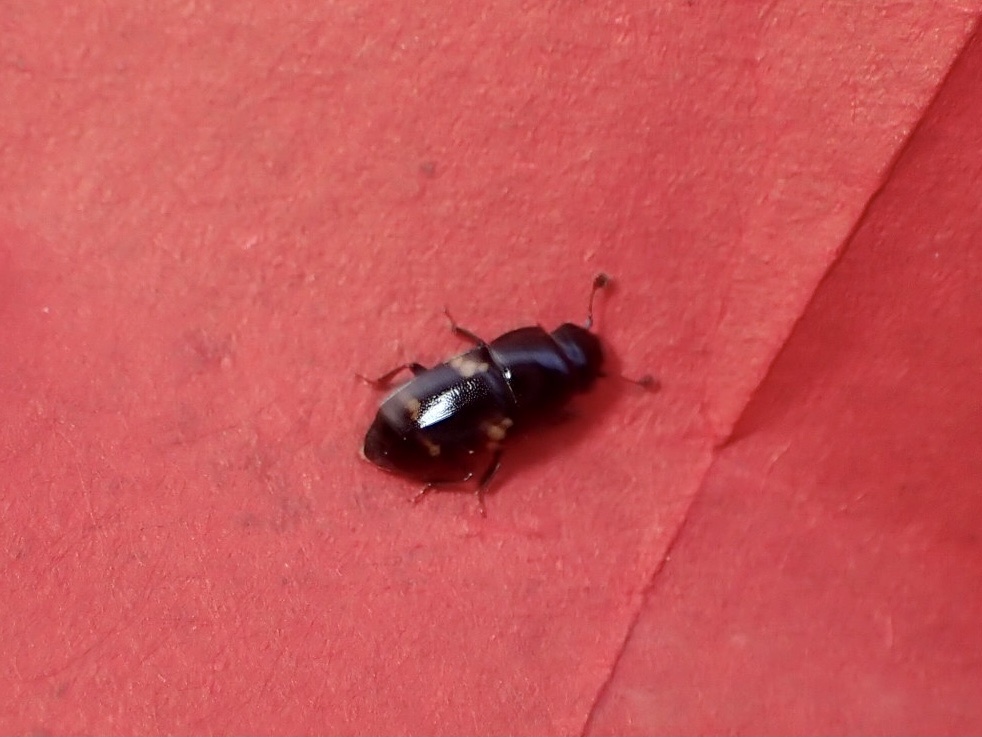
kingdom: Animalia
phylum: Arthropoda
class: Insecta
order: Coleoptera
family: Nitidulidae
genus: Glischrochilus
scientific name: Glischrochilus quadrisignatus
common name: Picnic beetle
